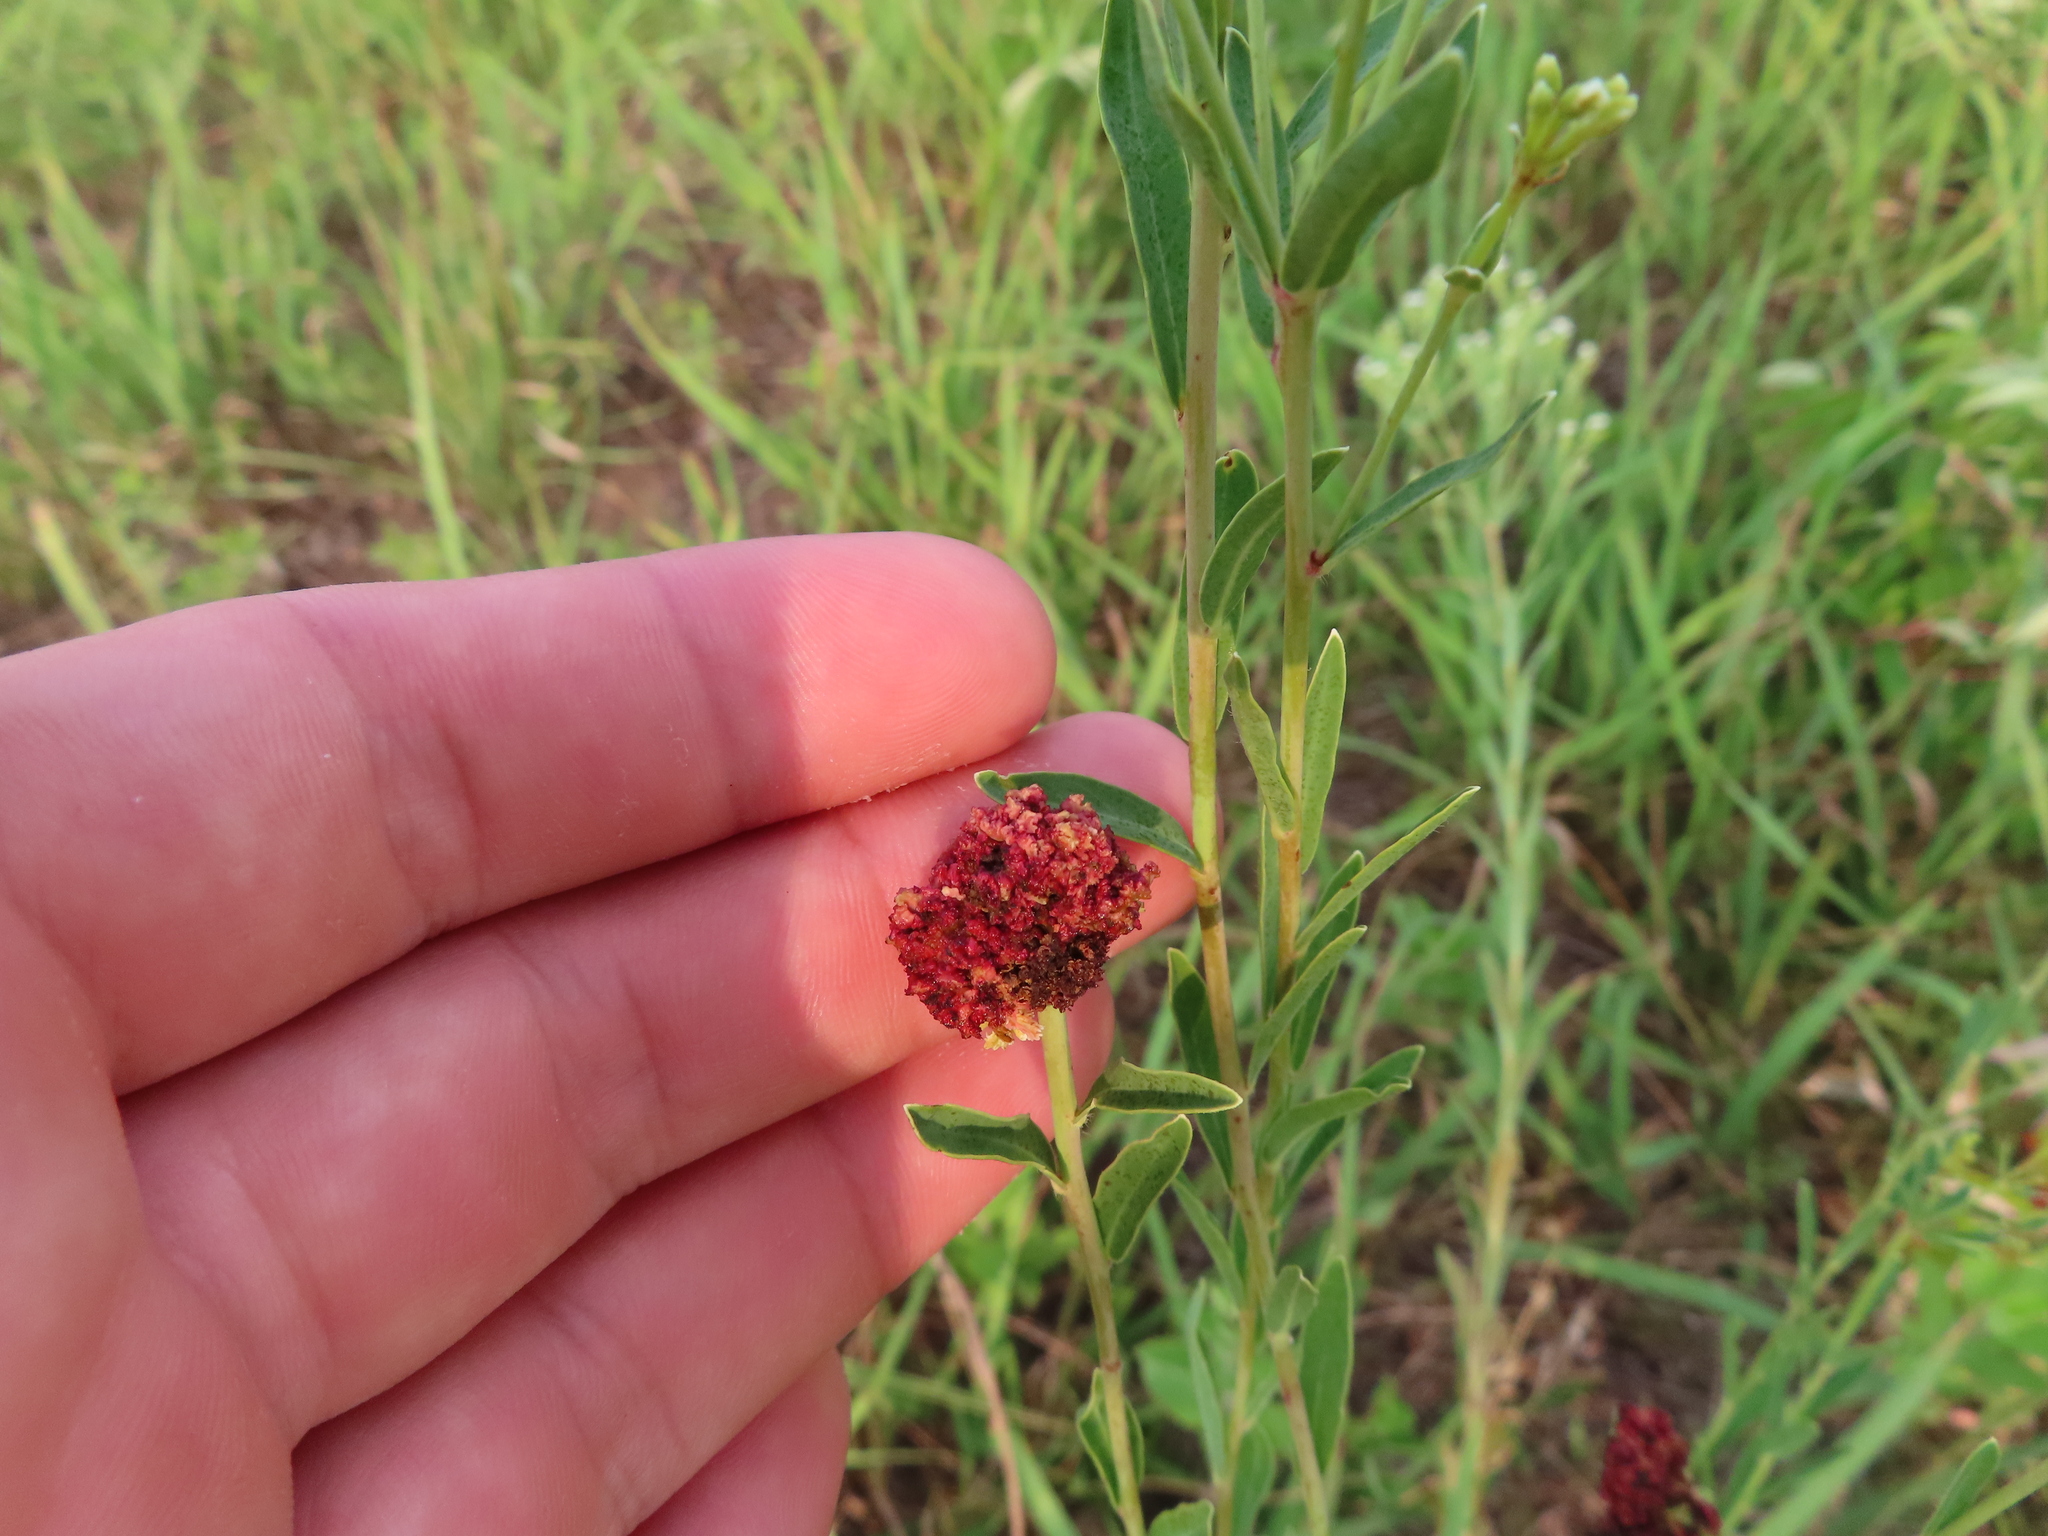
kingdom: Animalia
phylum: Arthropoda
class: Arachnida
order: Trombidiformes
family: Eriophyidae
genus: Aculops
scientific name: Aculops
